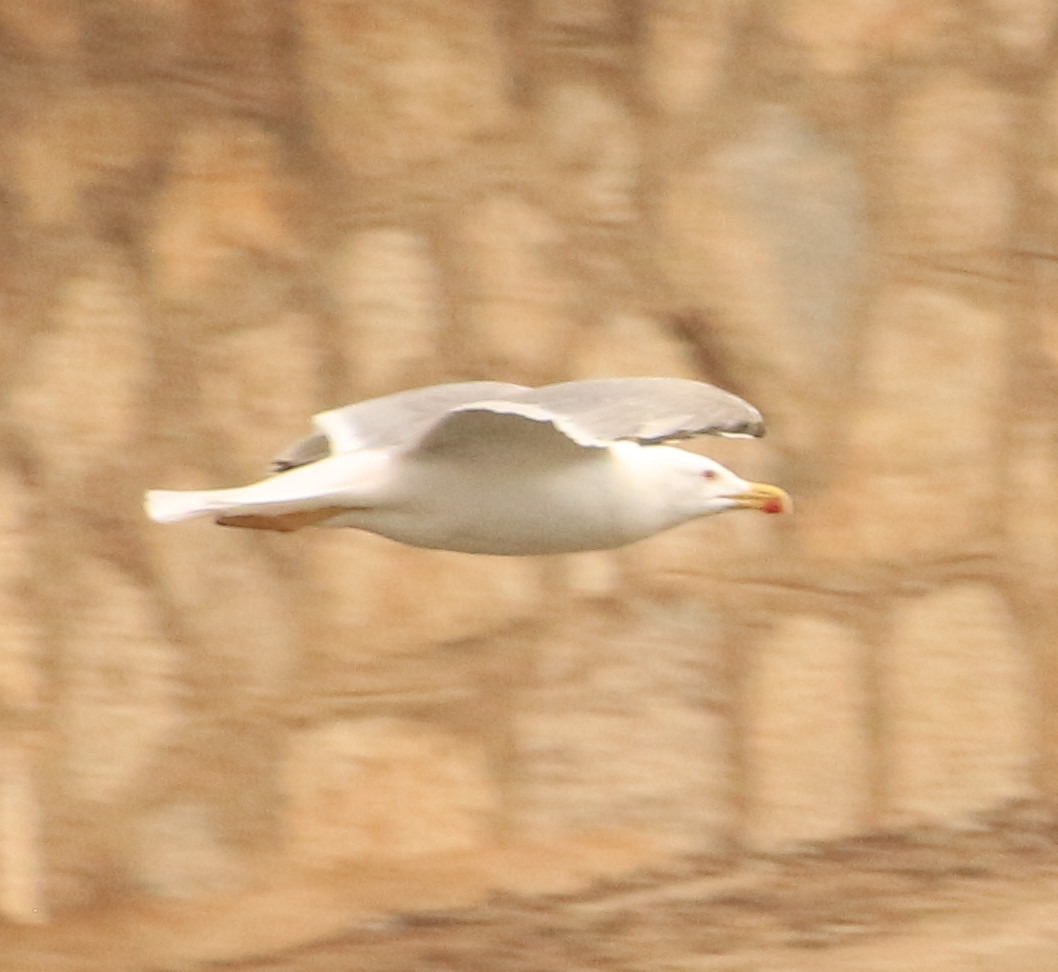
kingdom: Animalia
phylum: Chordata
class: Aves
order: Charadriiformes
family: Laridae
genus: Larus
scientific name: Larus michahellis
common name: Yellow-legged gull
